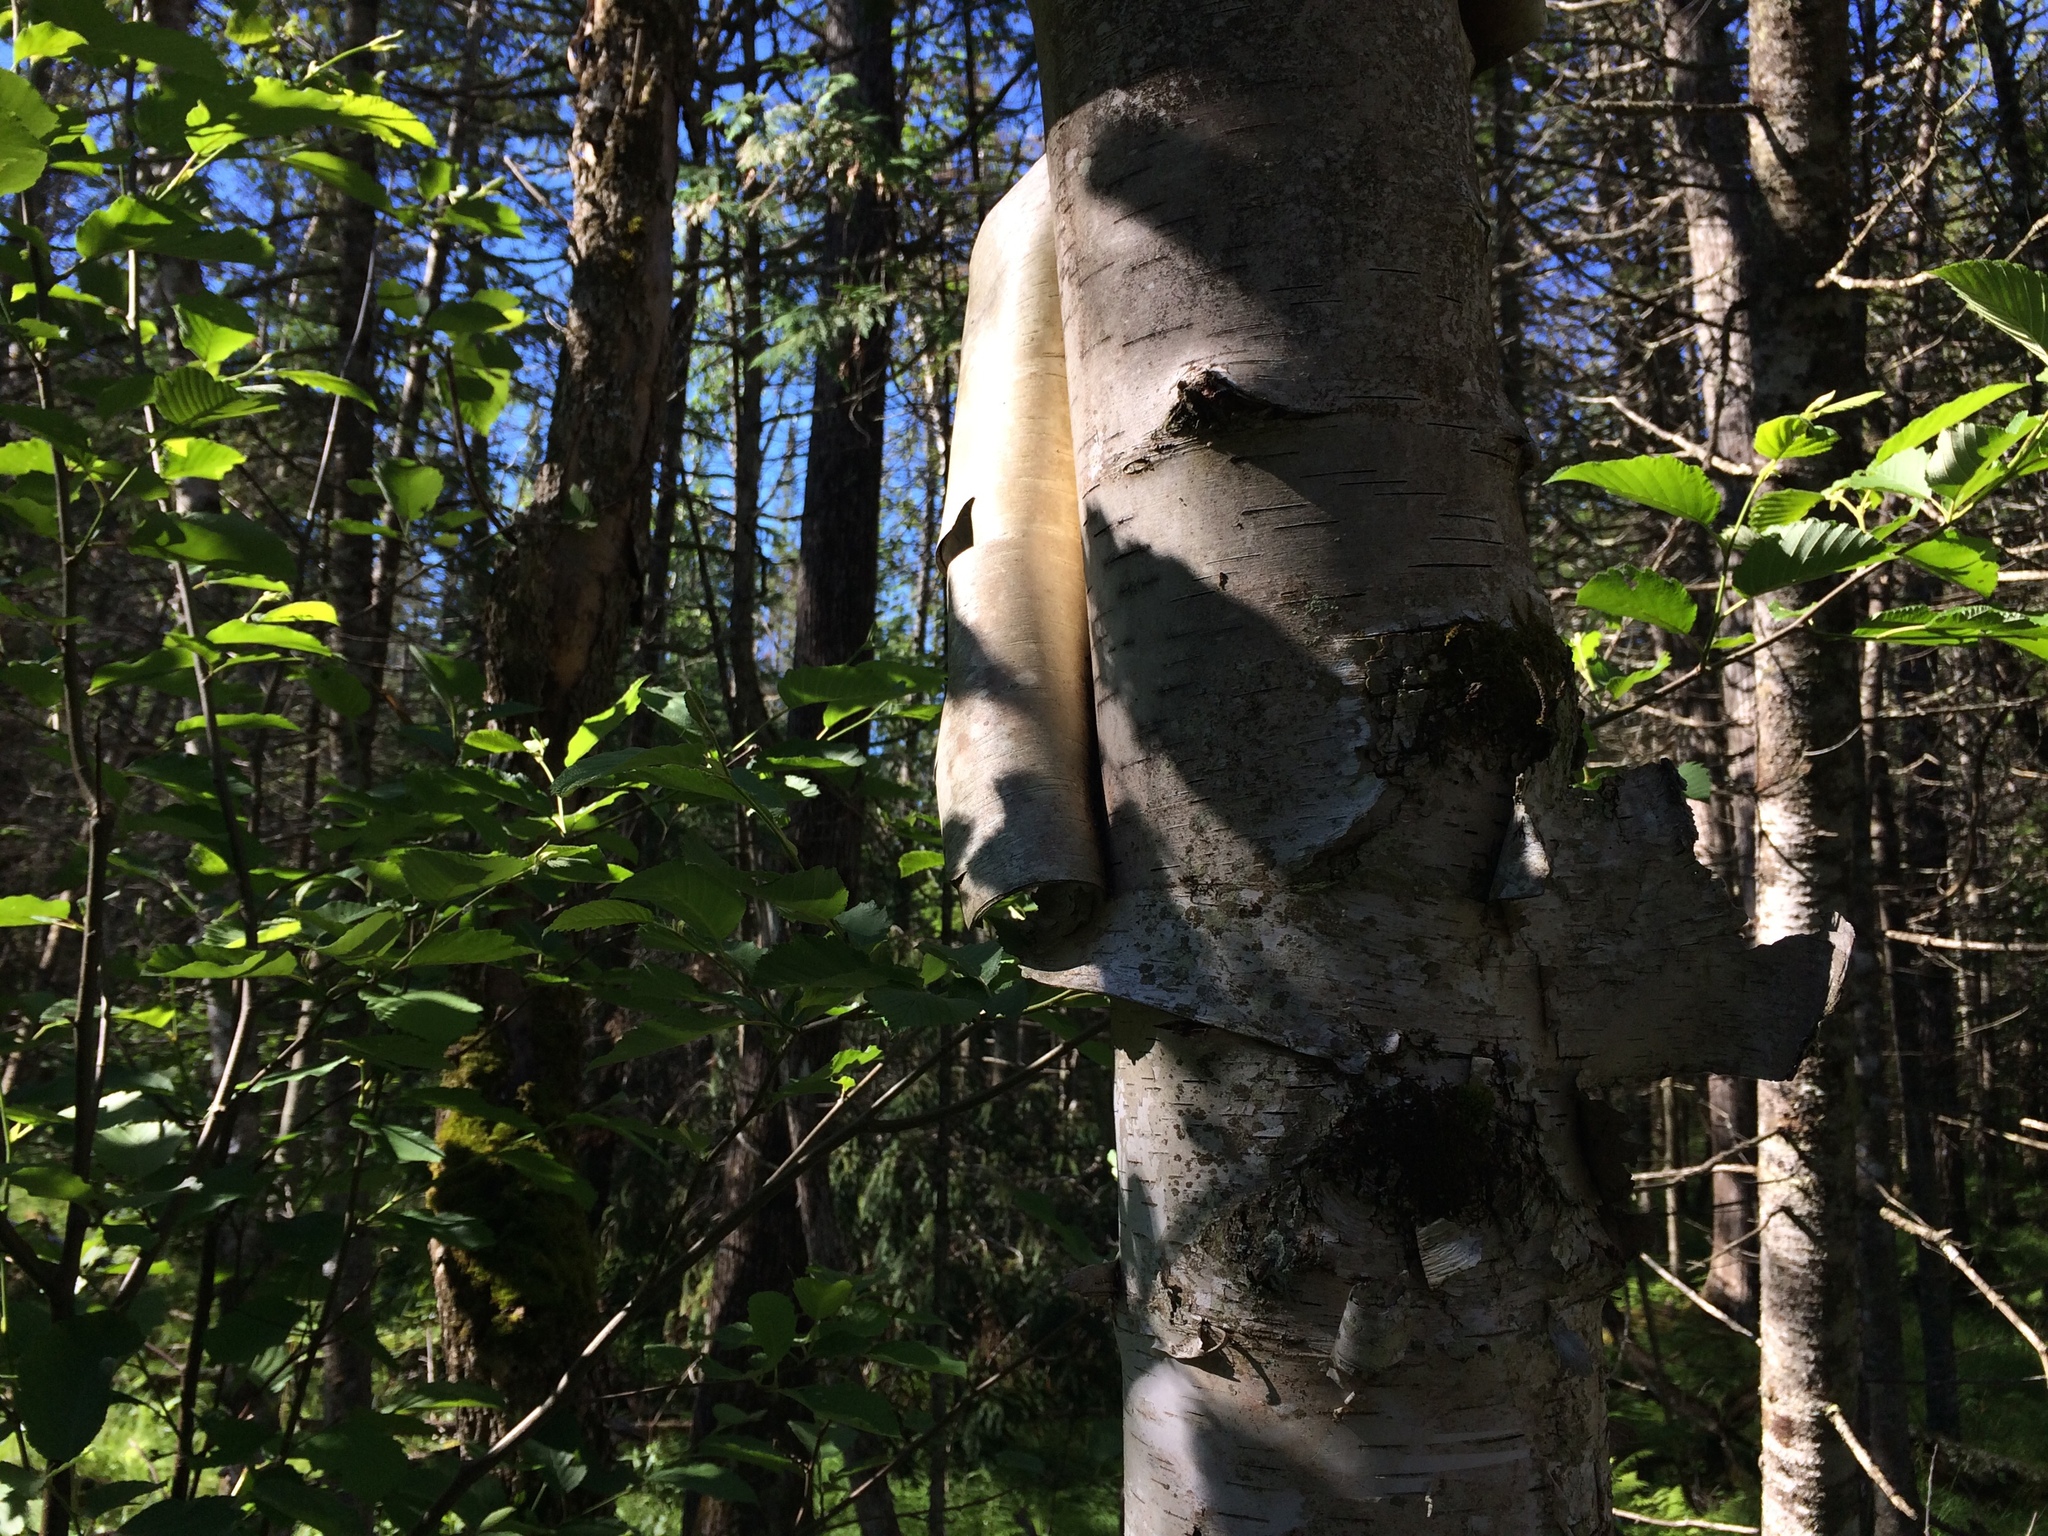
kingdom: Plantae
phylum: Tracheophyta
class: Magnoliopsida
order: Fagales
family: Betulaceae
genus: Betula
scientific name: Betula papyrifera
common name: Paper birch
